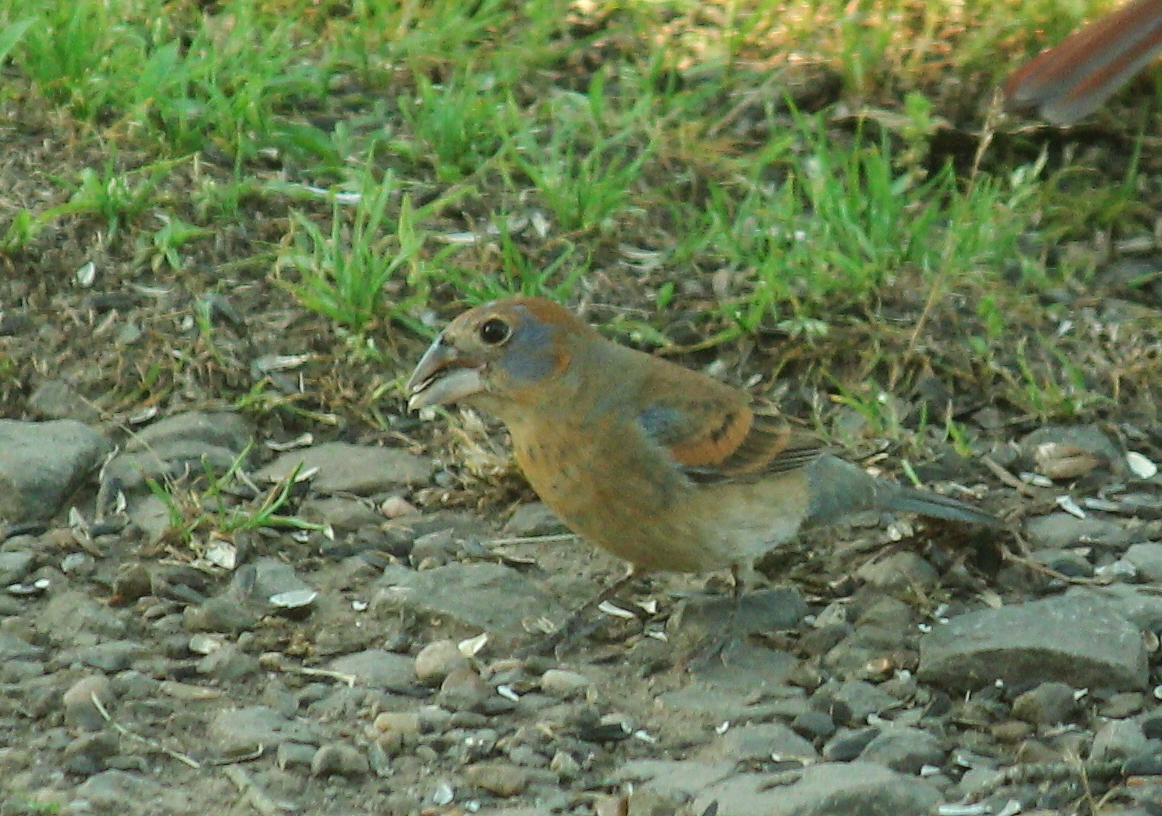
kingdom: Animalia
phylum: Chordata
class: Aves
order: Passeriformes
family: Cardinalidae
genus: Passerina
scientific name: Passerina caerulea
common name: Blue grosbeak
